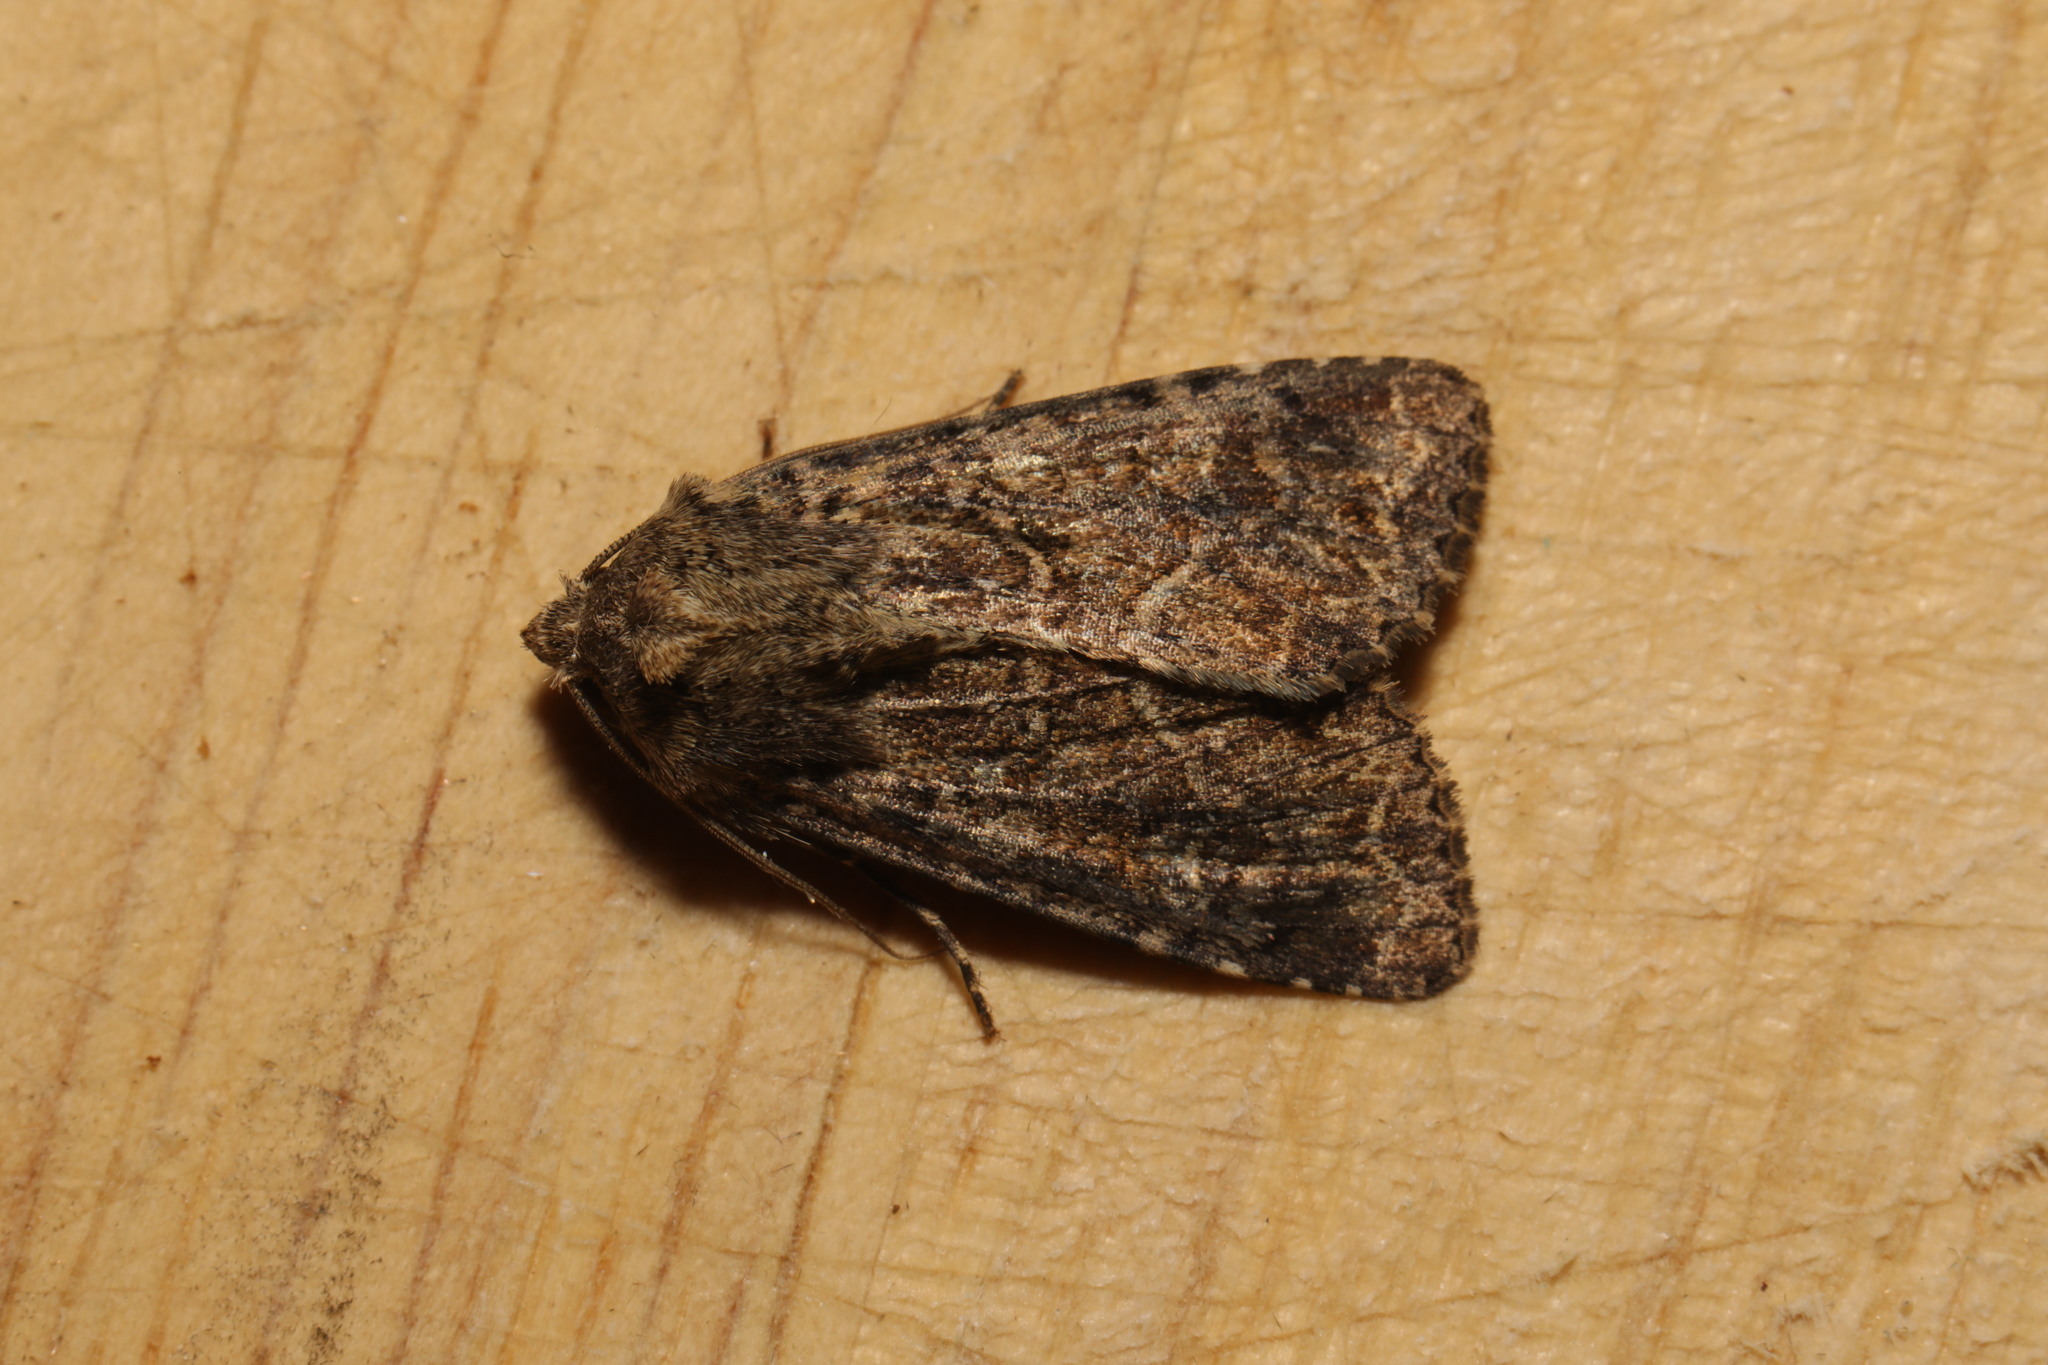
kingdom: Animalia
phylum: Arthropoda
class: Insecta
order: Lepidoptera
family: Noctuidae
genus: Thalpophila
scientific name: Thalpophila matura
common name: Straw underwing
